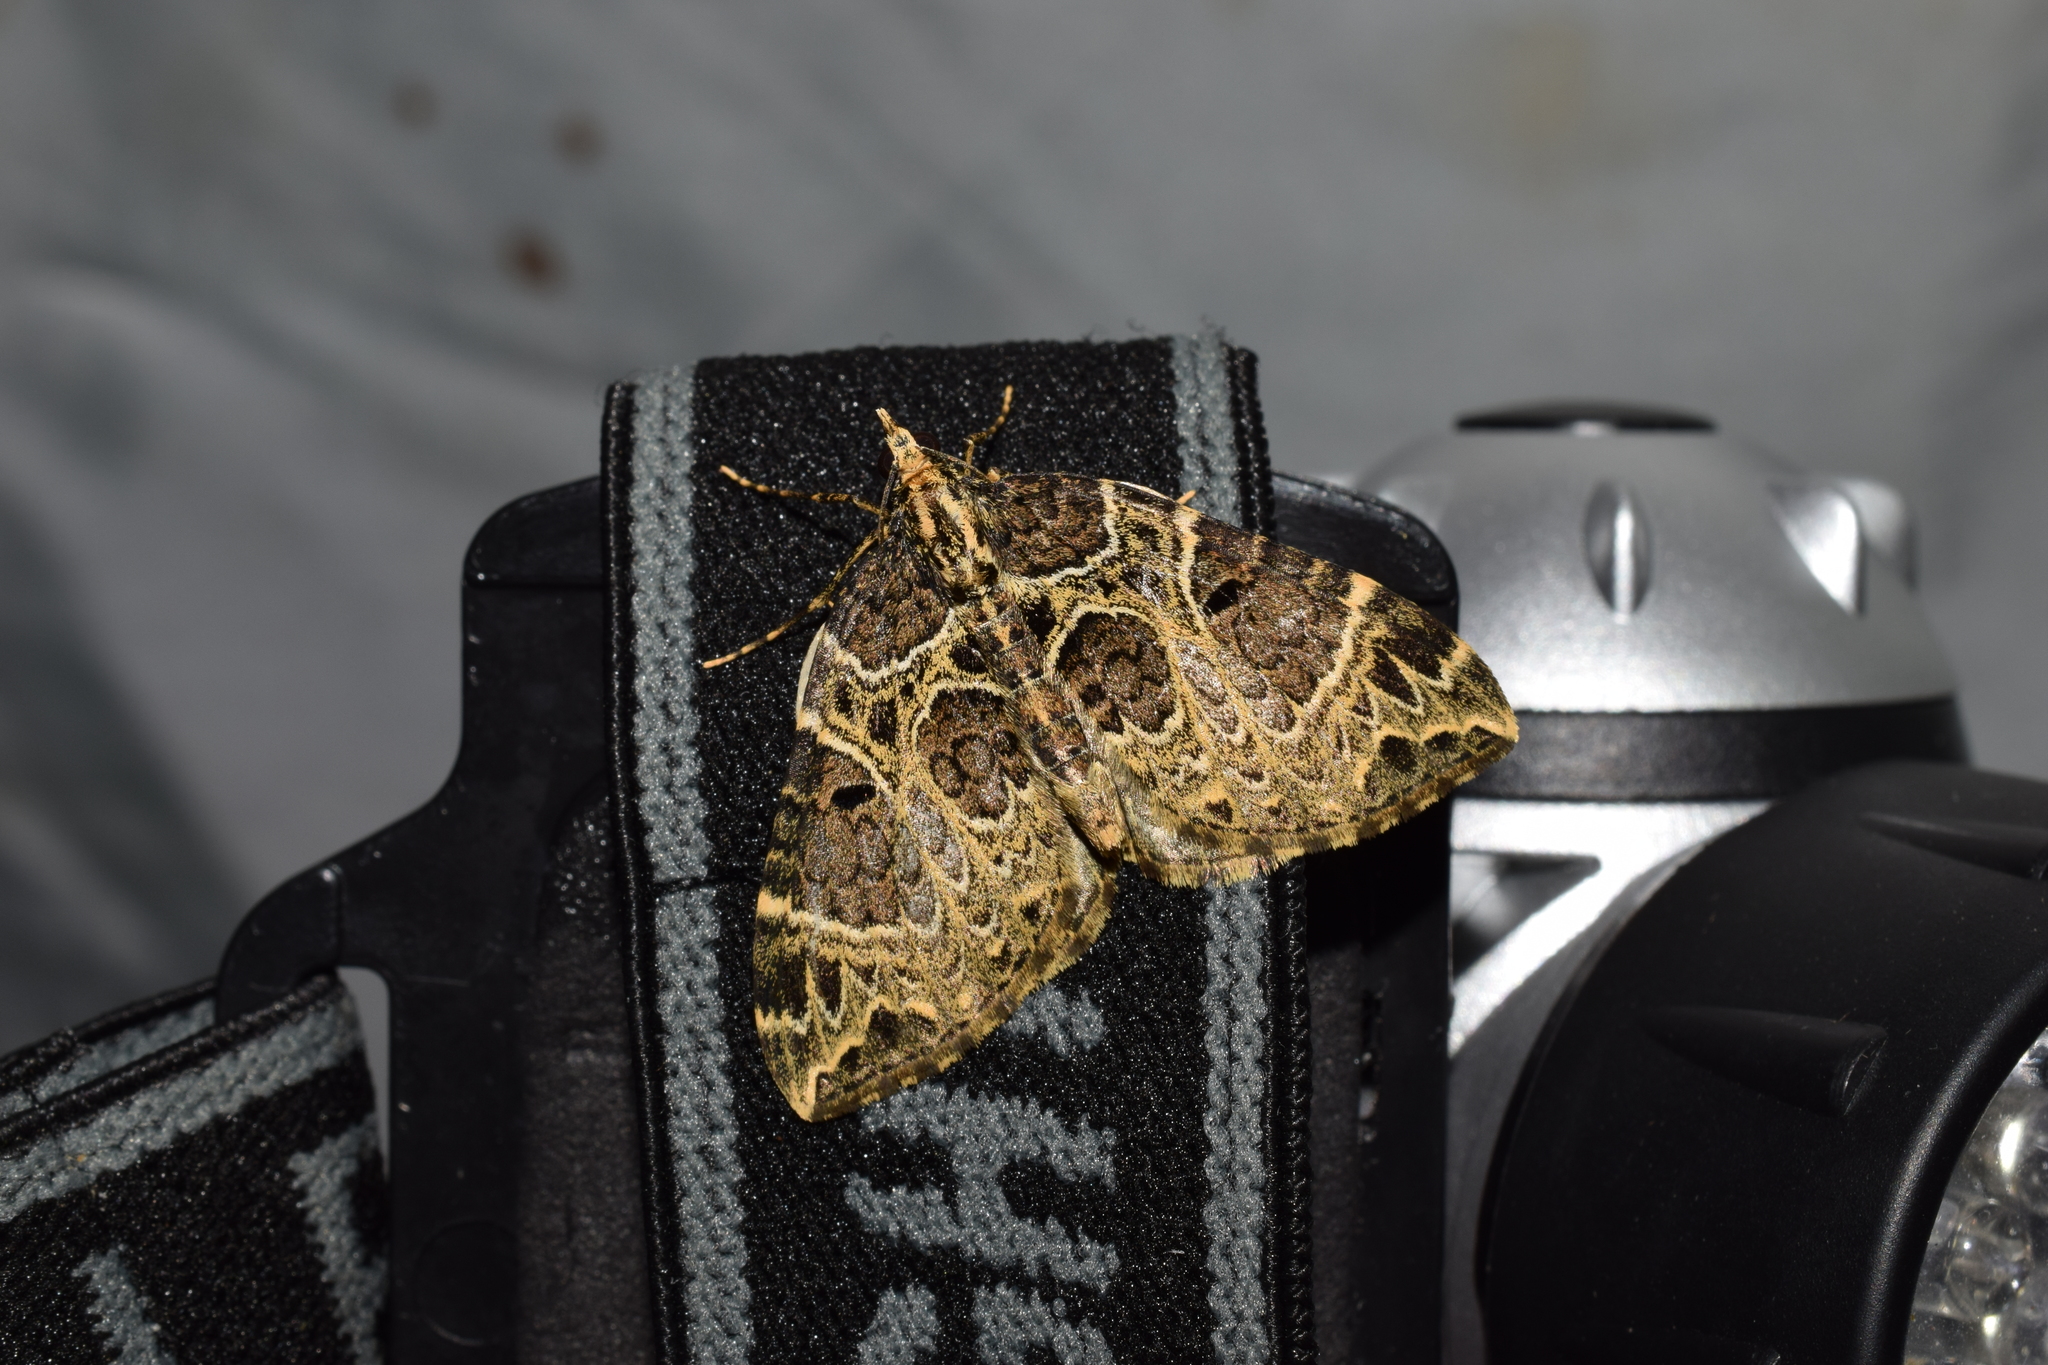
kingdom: Animalia
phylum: Arthropoda
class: Insecta
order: Lepidoptera
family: Geometridae
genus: Eustroma
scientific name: Eustroma melancholica
